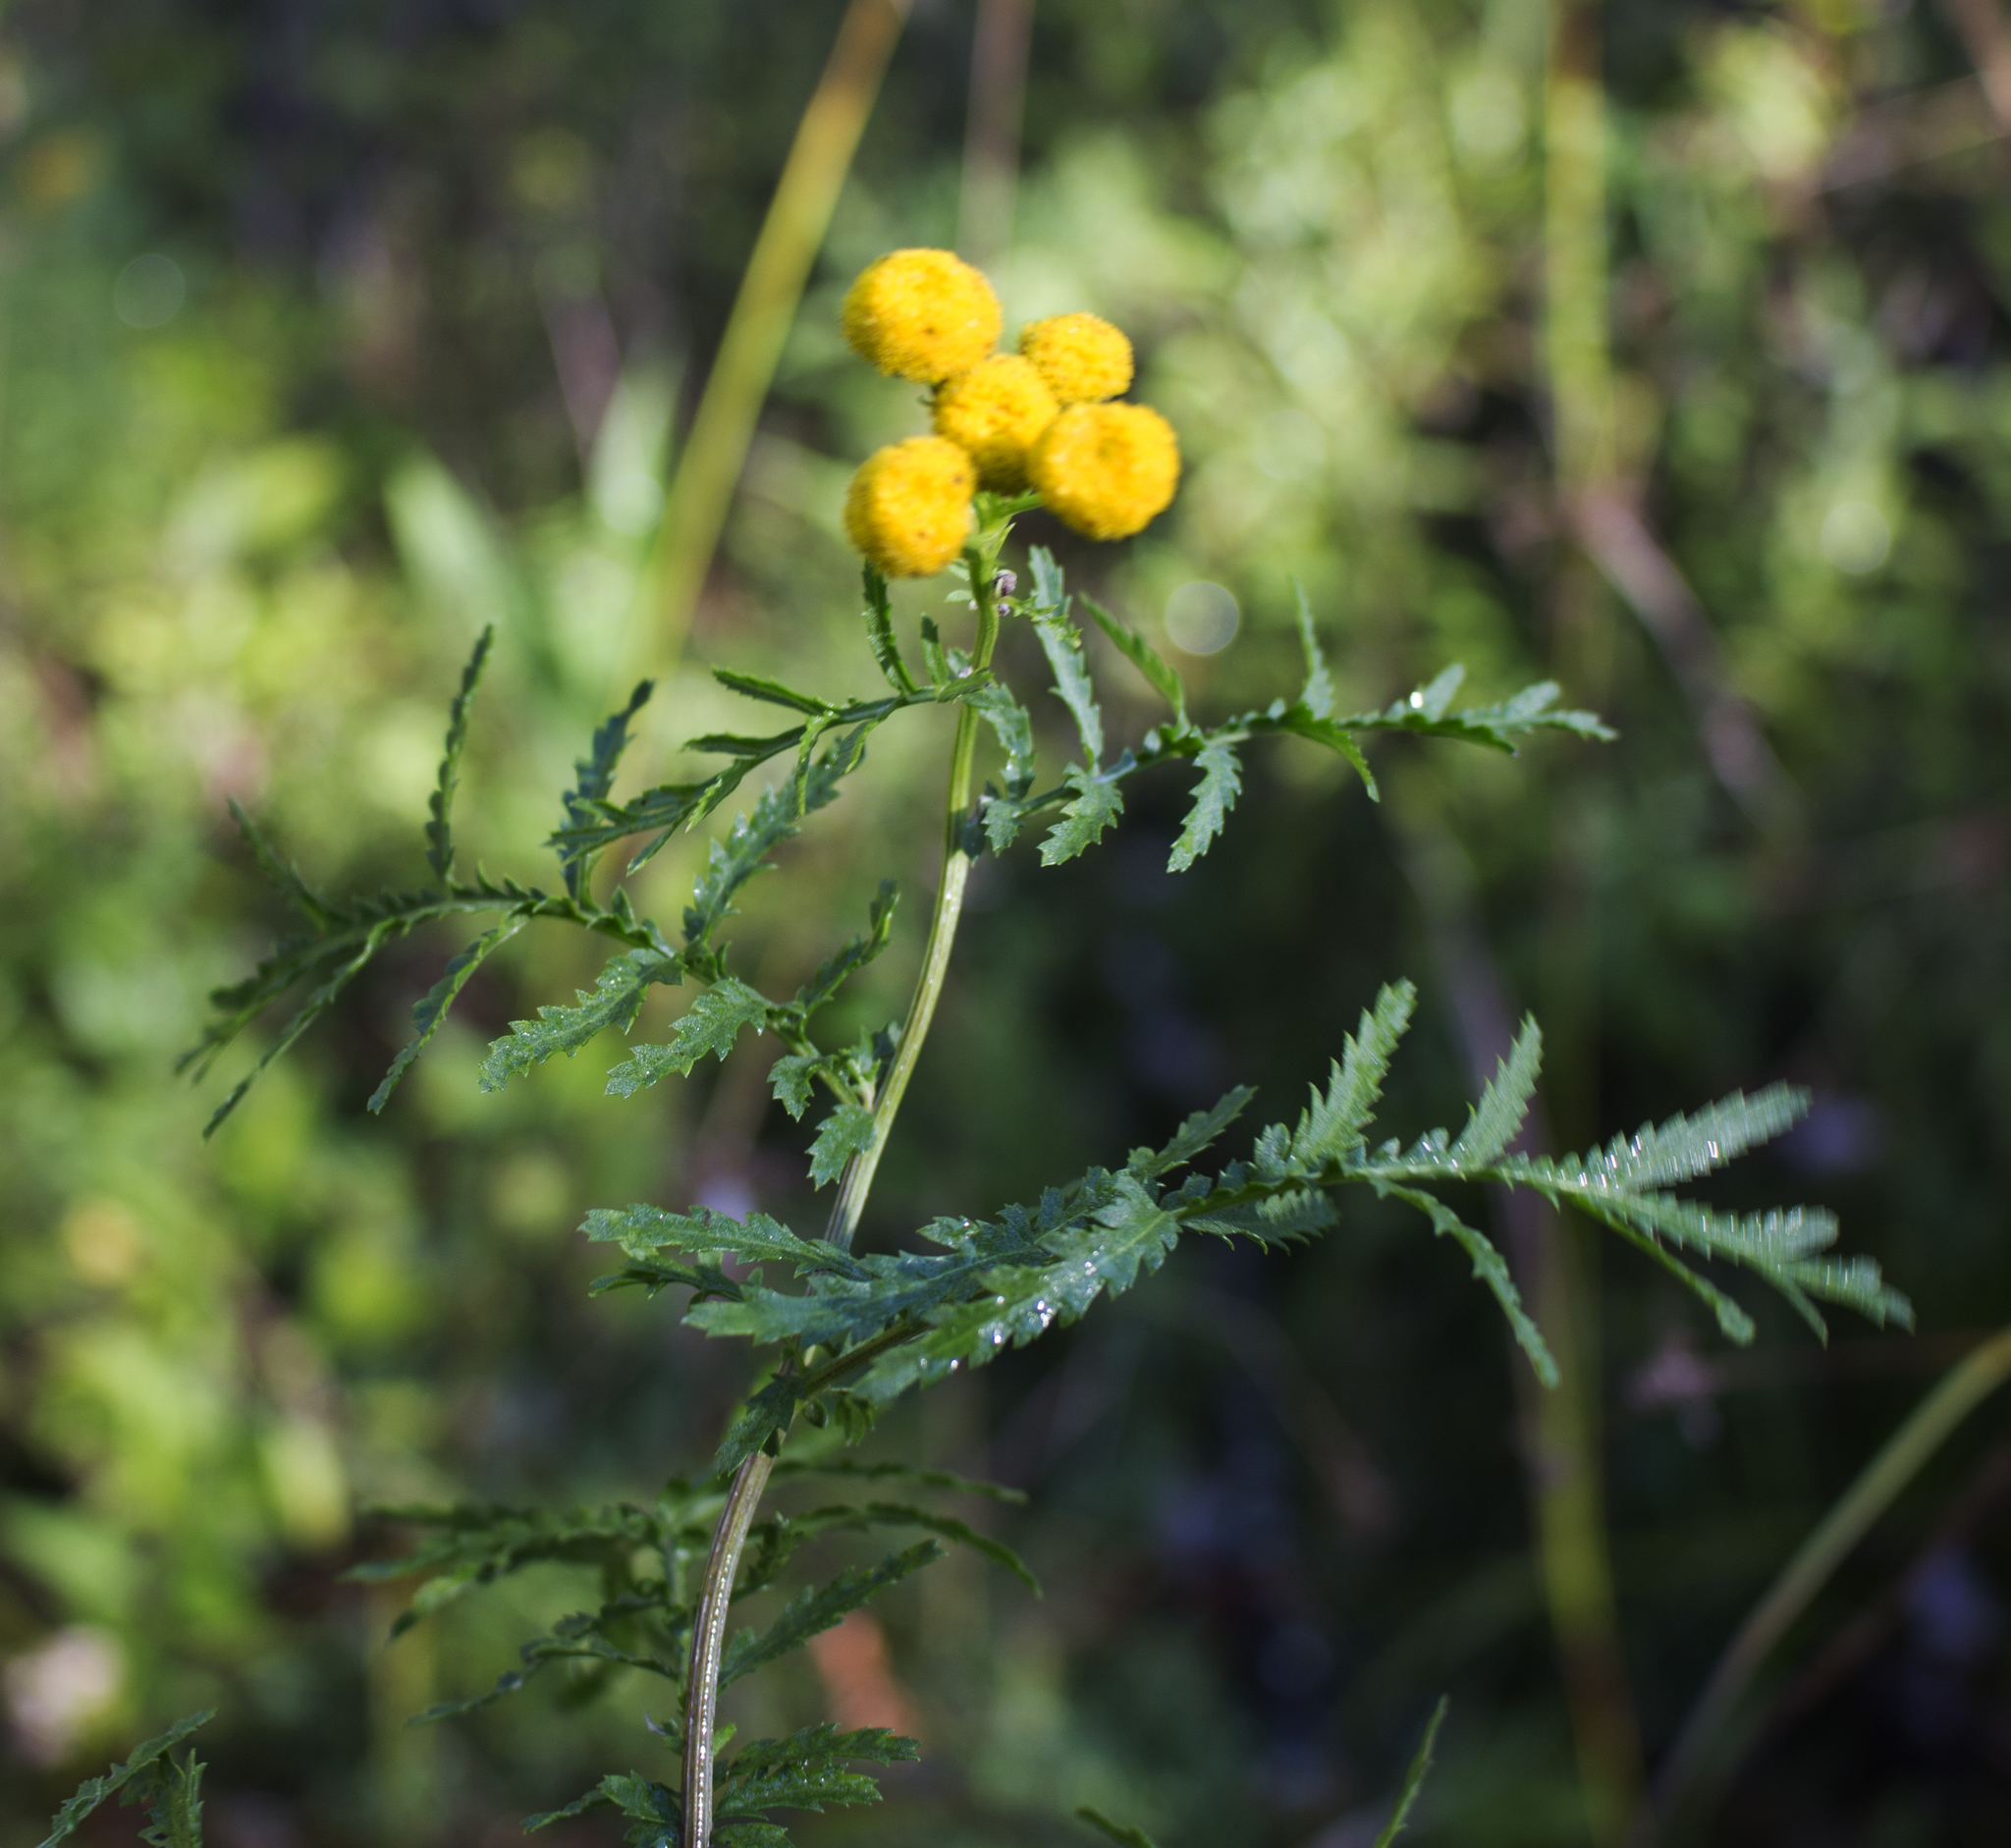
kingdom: Plantae
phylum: Tracheophyta
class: Magnoliopsida
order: Asterales
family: Asteraceae
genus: Tanacetum
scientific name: Tanacetum vulgare
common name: Common tansy
